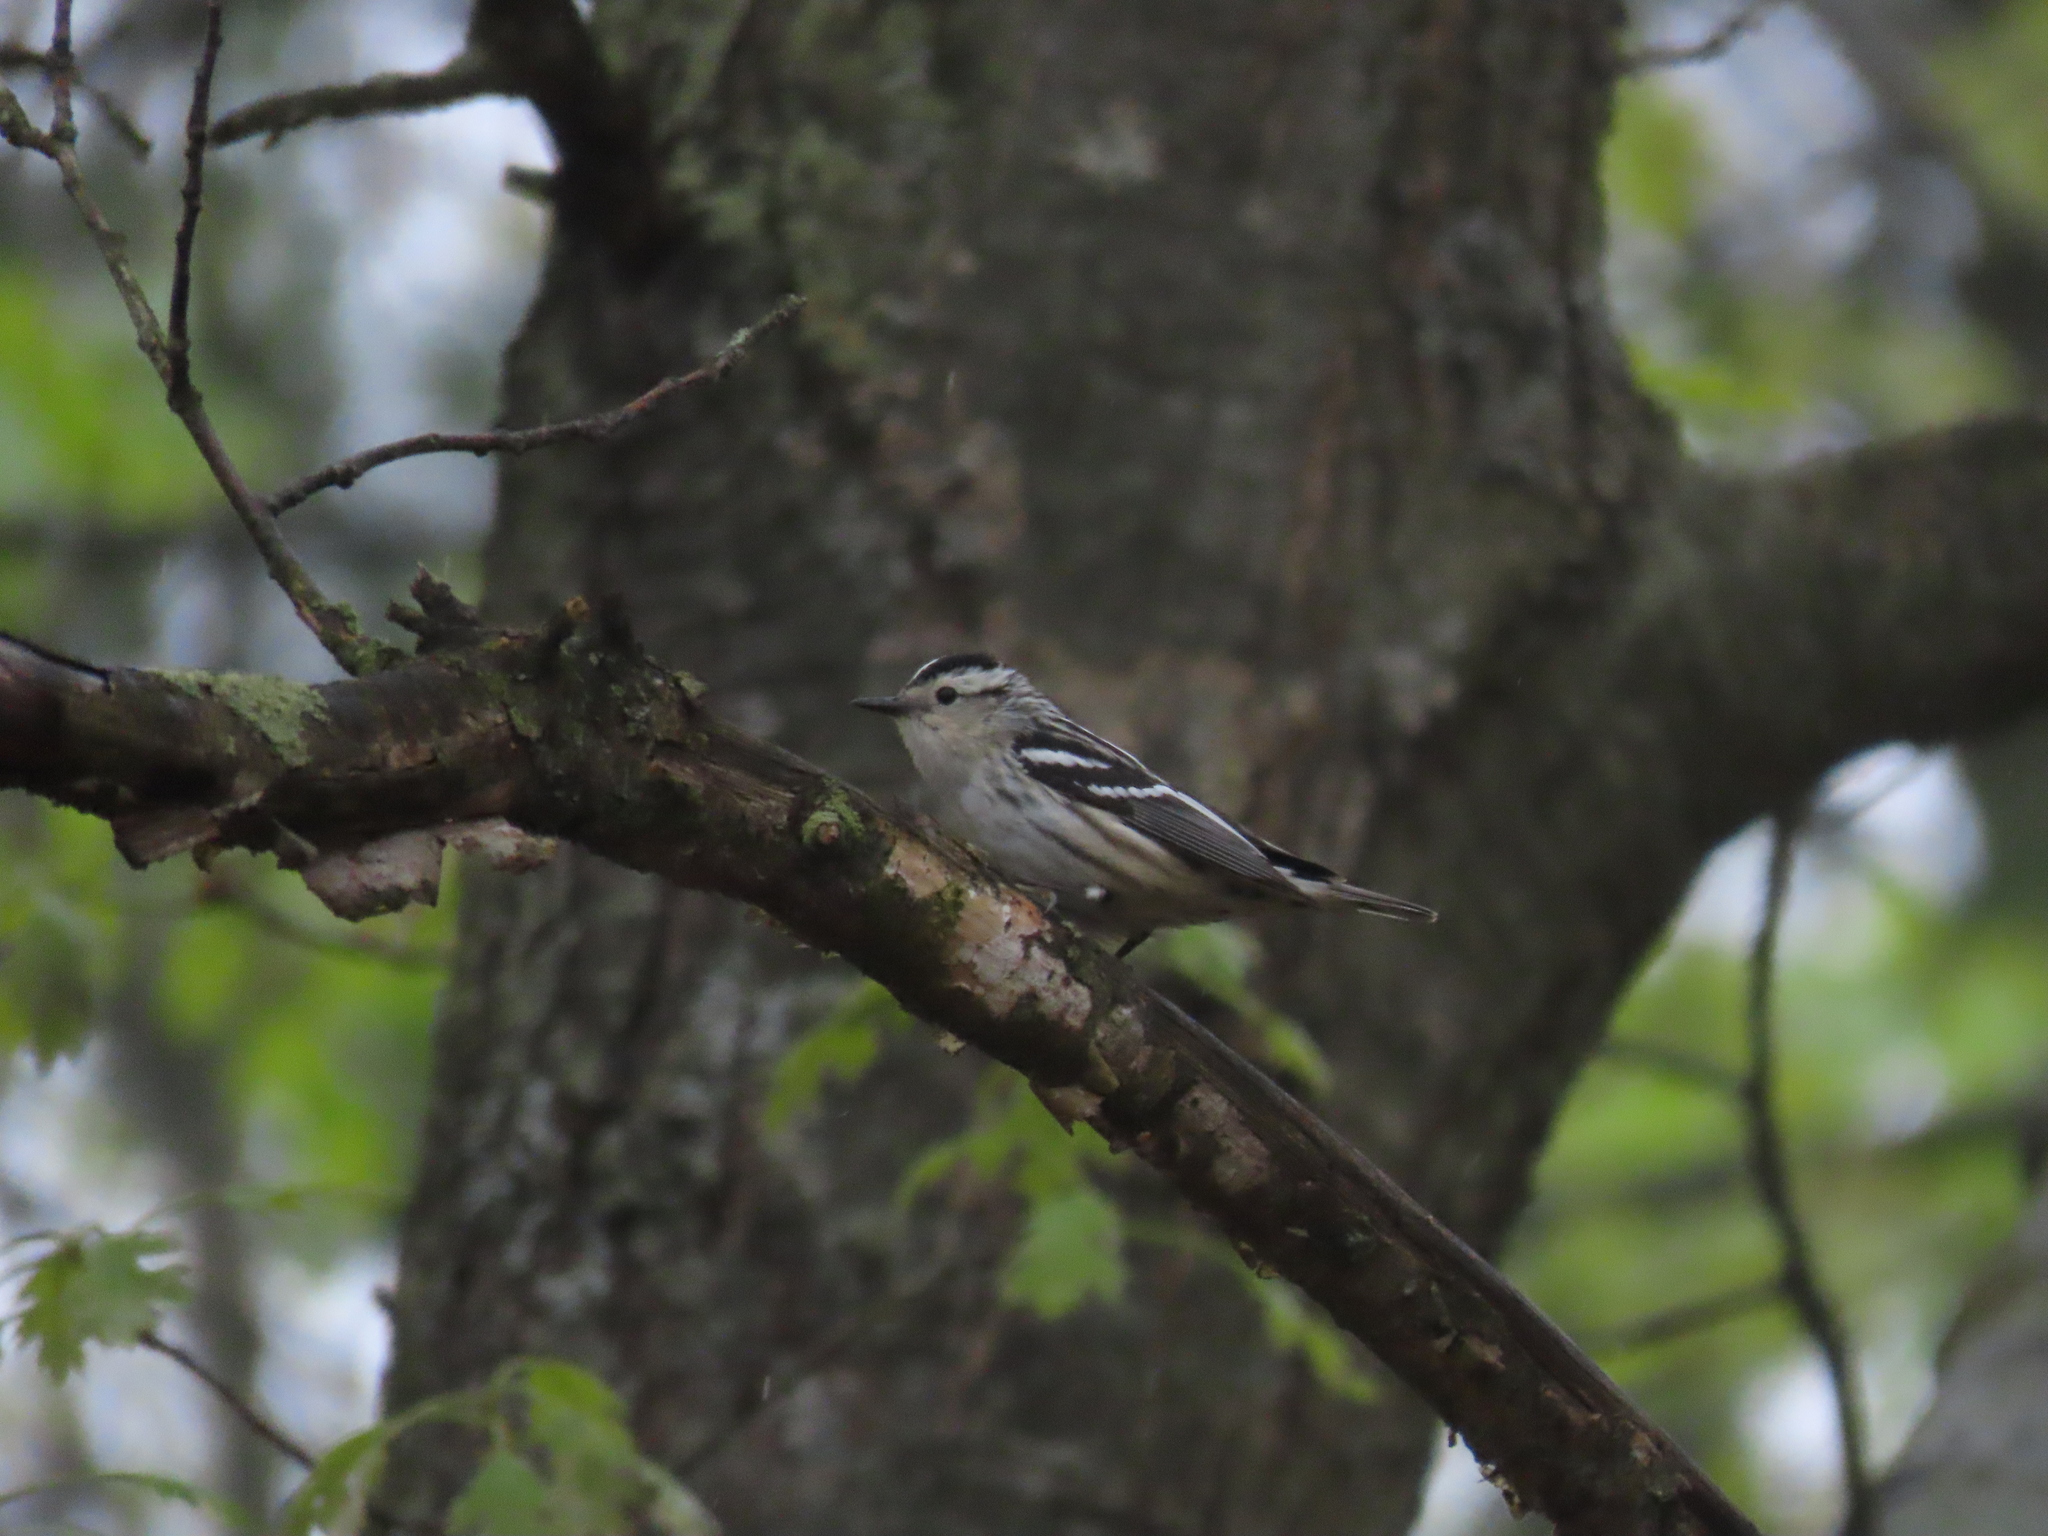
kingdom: Animalia
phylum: Chordata
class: Aves
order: Passeriformes
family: Parulidae
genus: Mniotilta
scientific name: Mniotilta varia
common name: Black-and-white warbler
